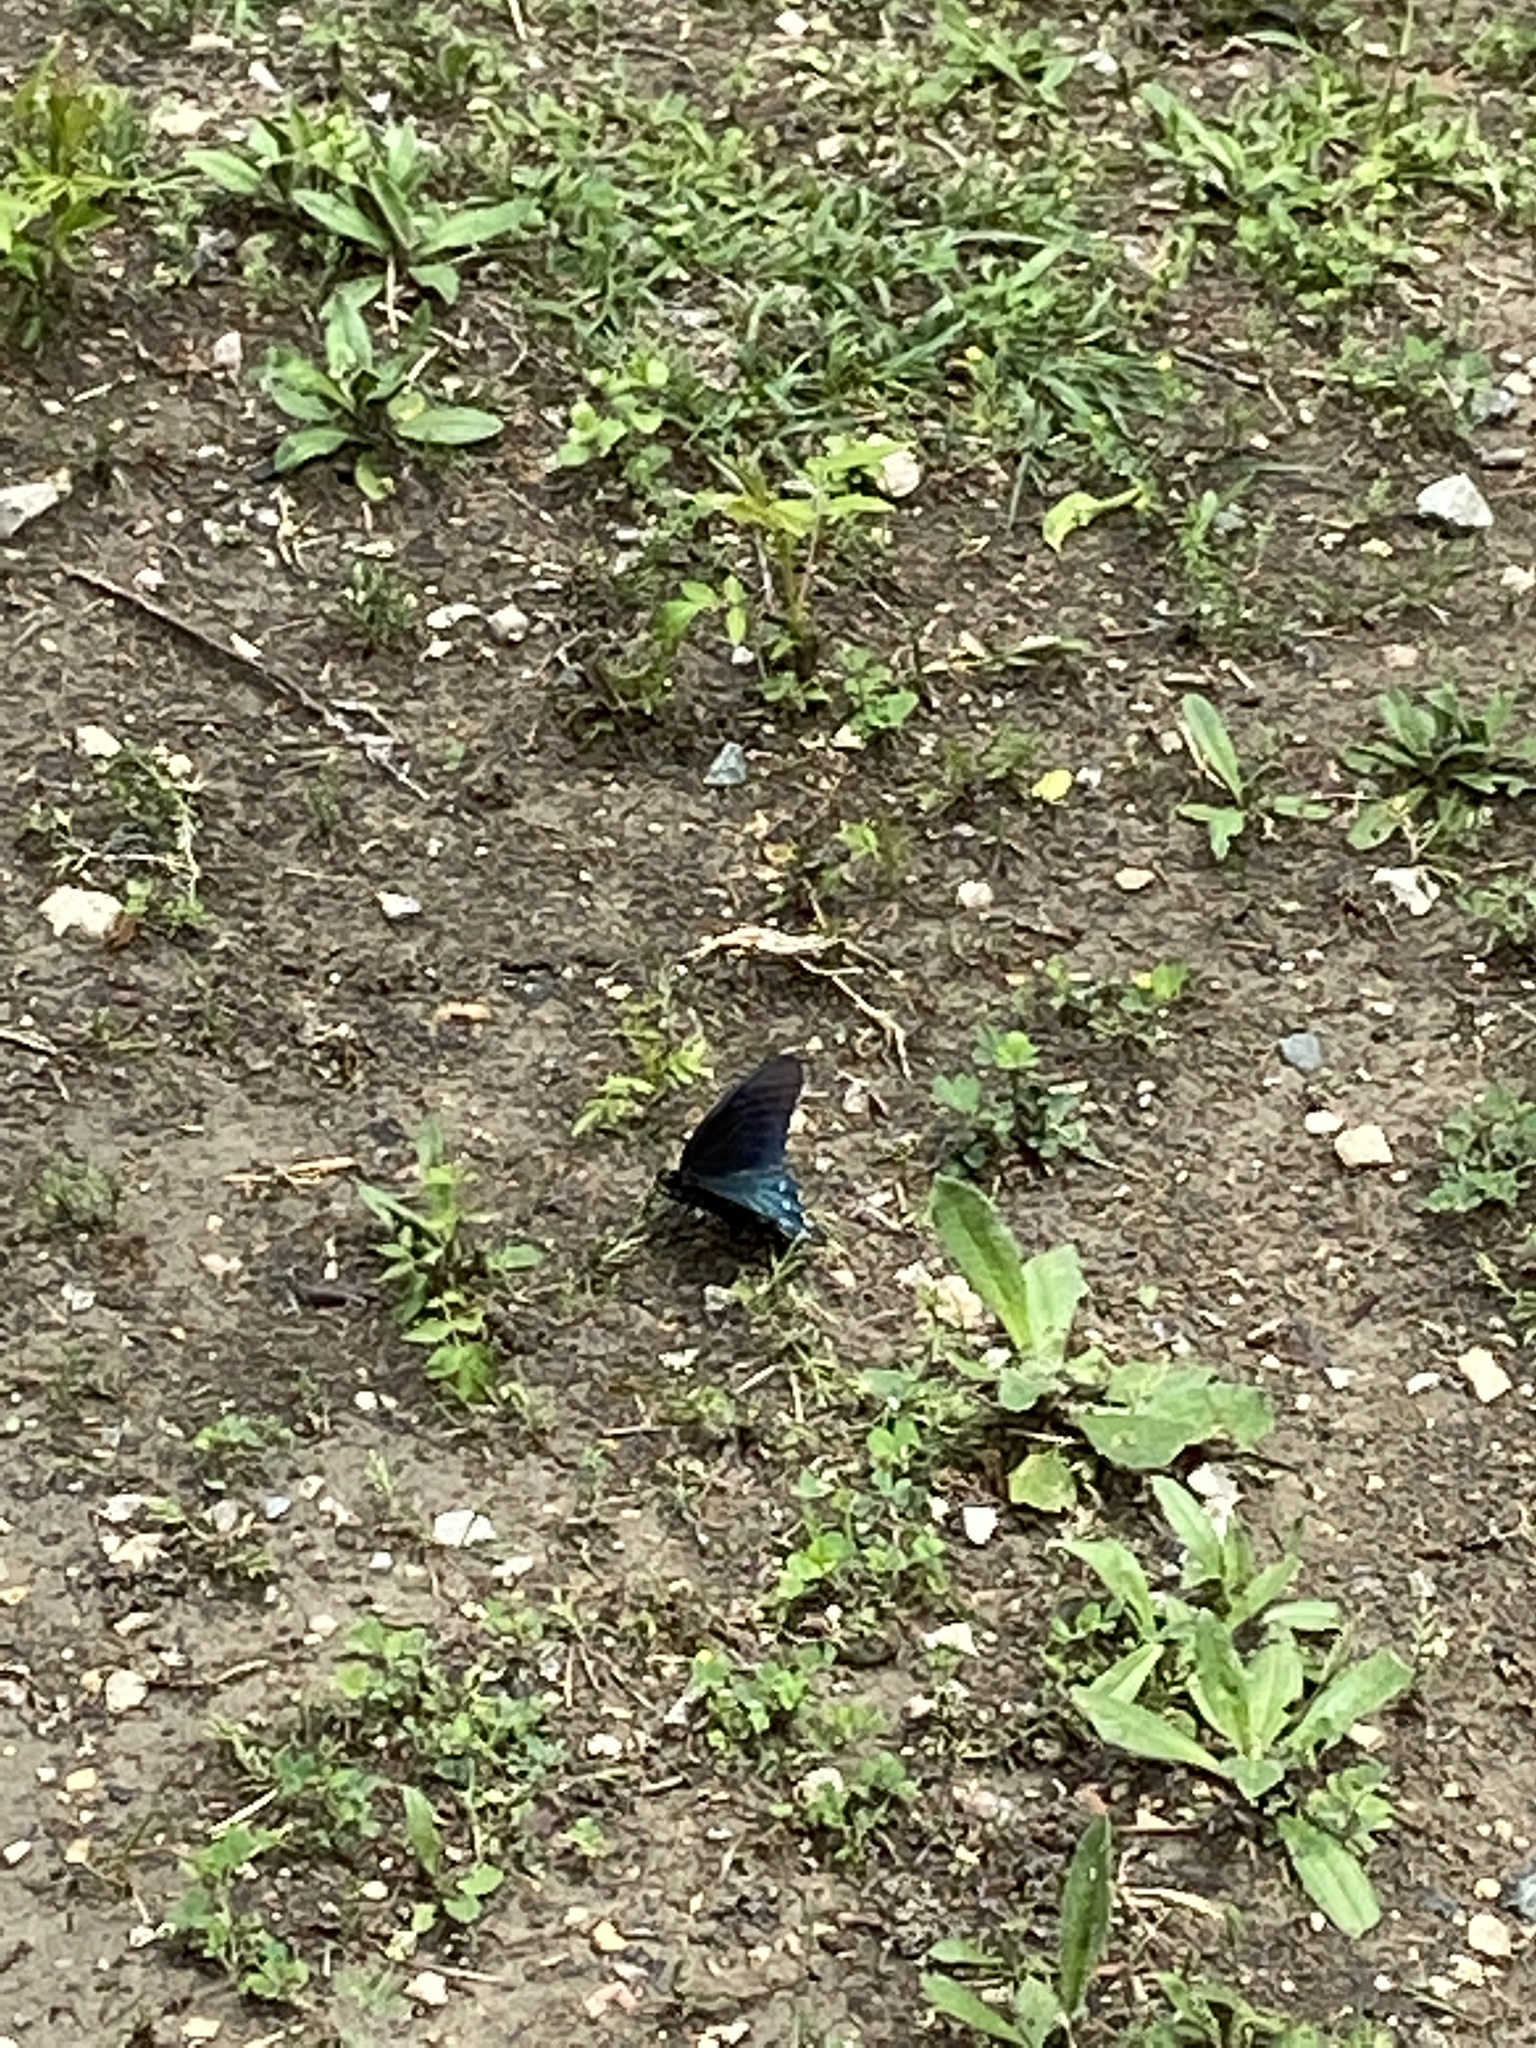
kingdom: Animalia
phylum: Arthropoda
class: Insecta
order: Lepidoptera
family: Papilionidae
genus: Battus
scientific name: Battus philenor
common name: Pipevine swallowtail
